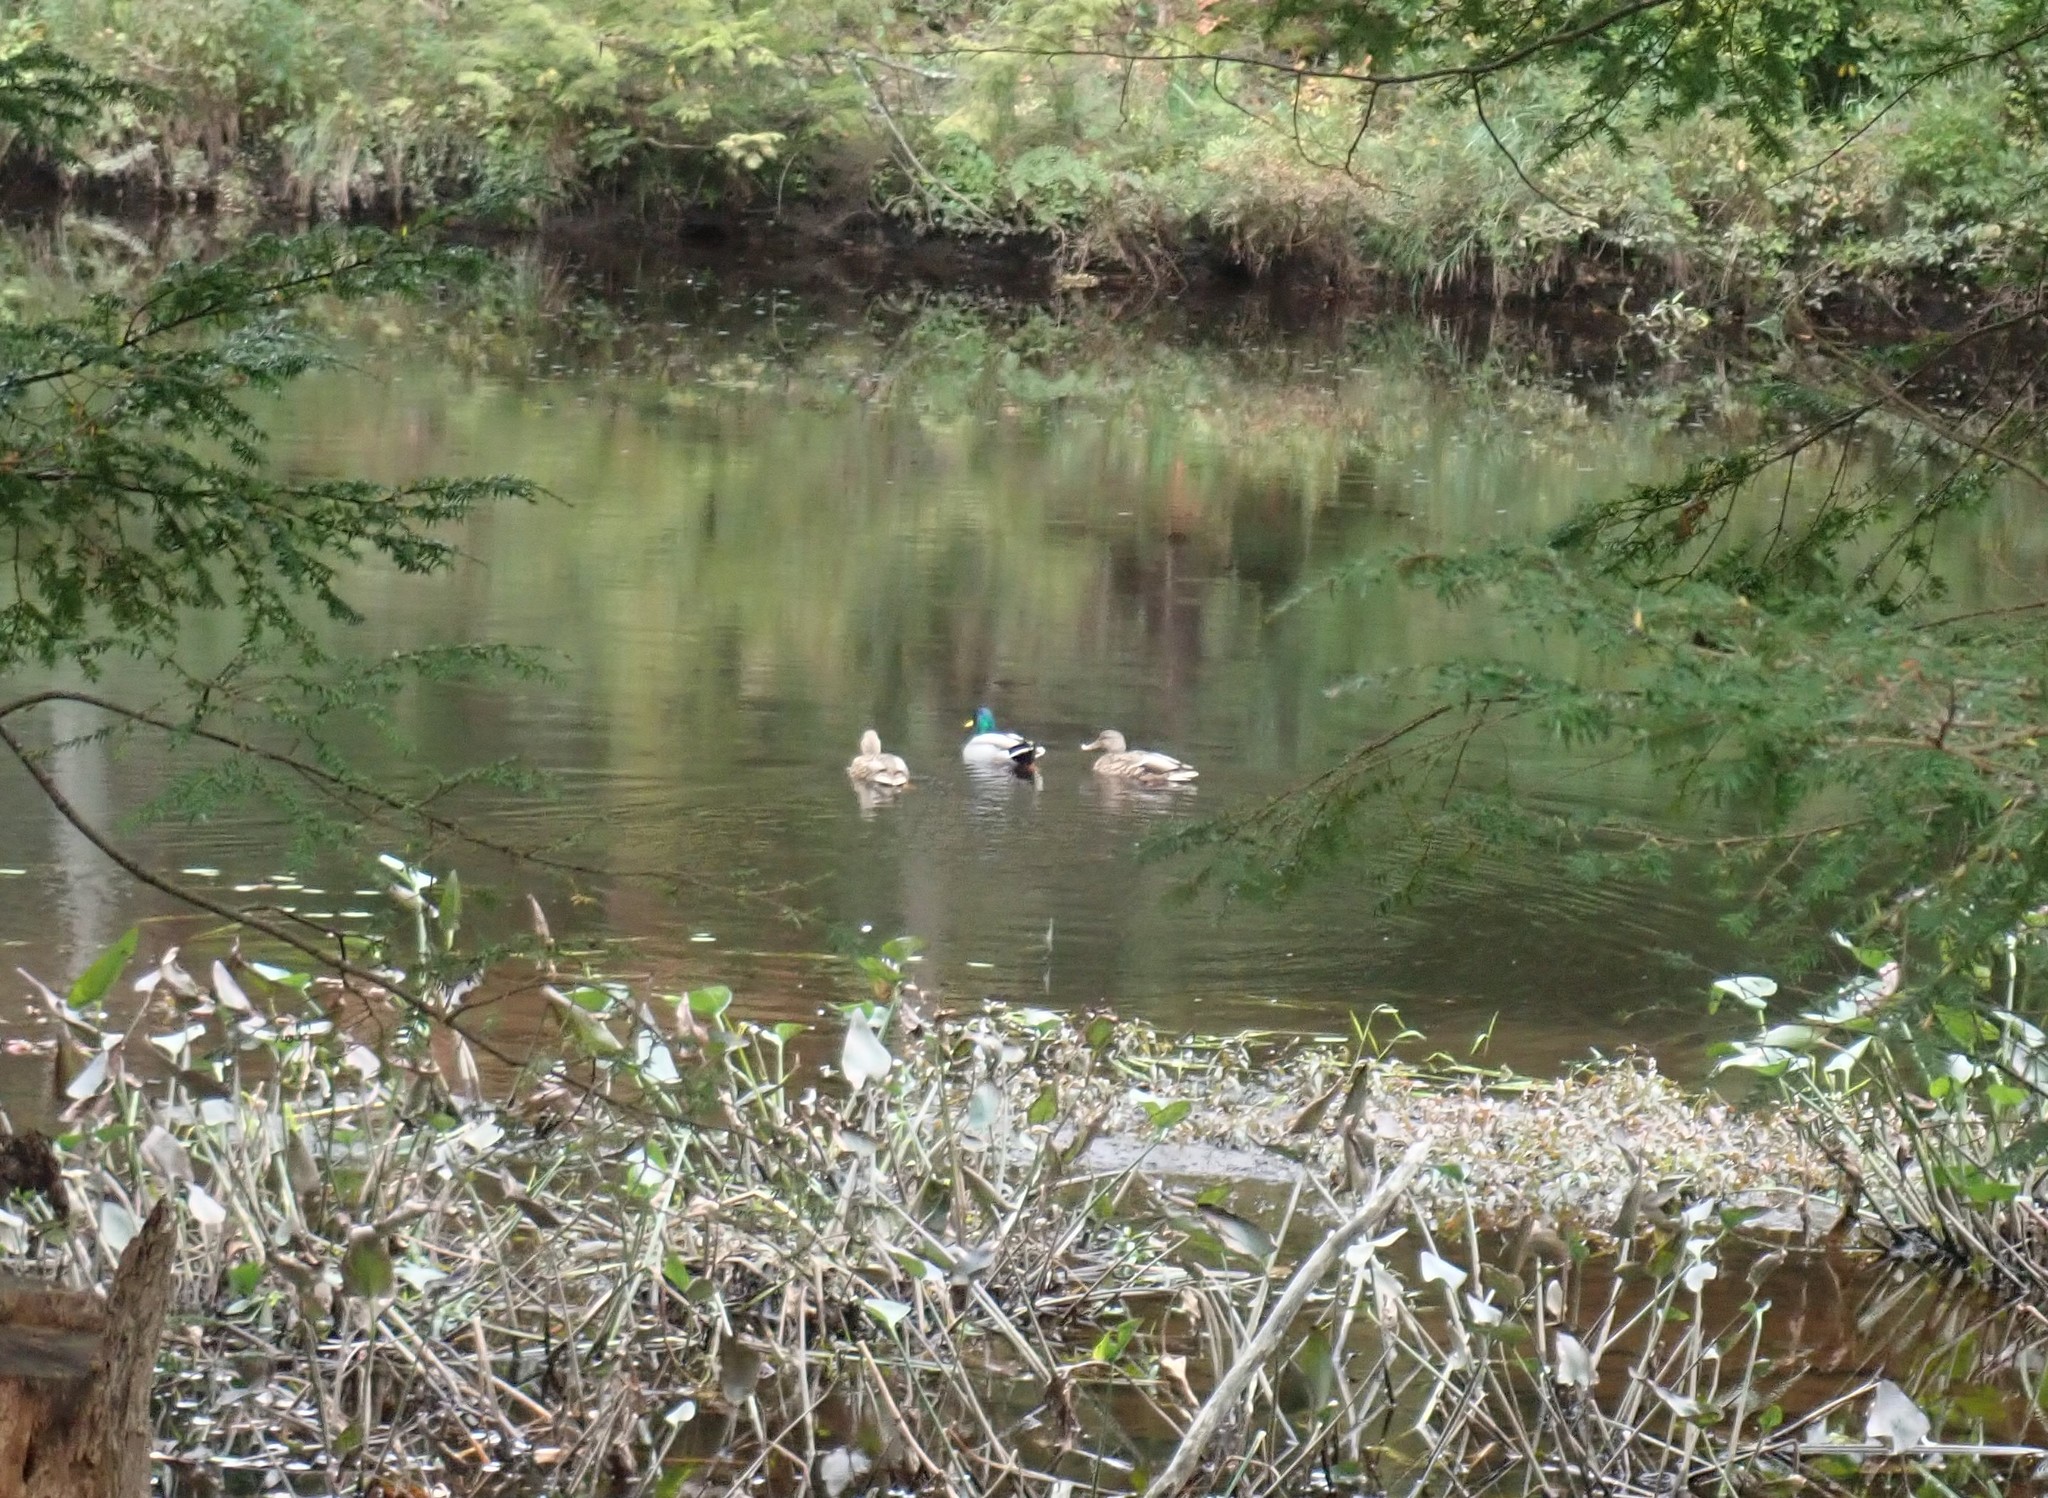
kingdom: Animalia
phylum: Chordata
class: Aves
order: Anseriformes
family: Anatidae
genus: Anas
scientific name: Anas platyrhynchos
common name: Mallard
